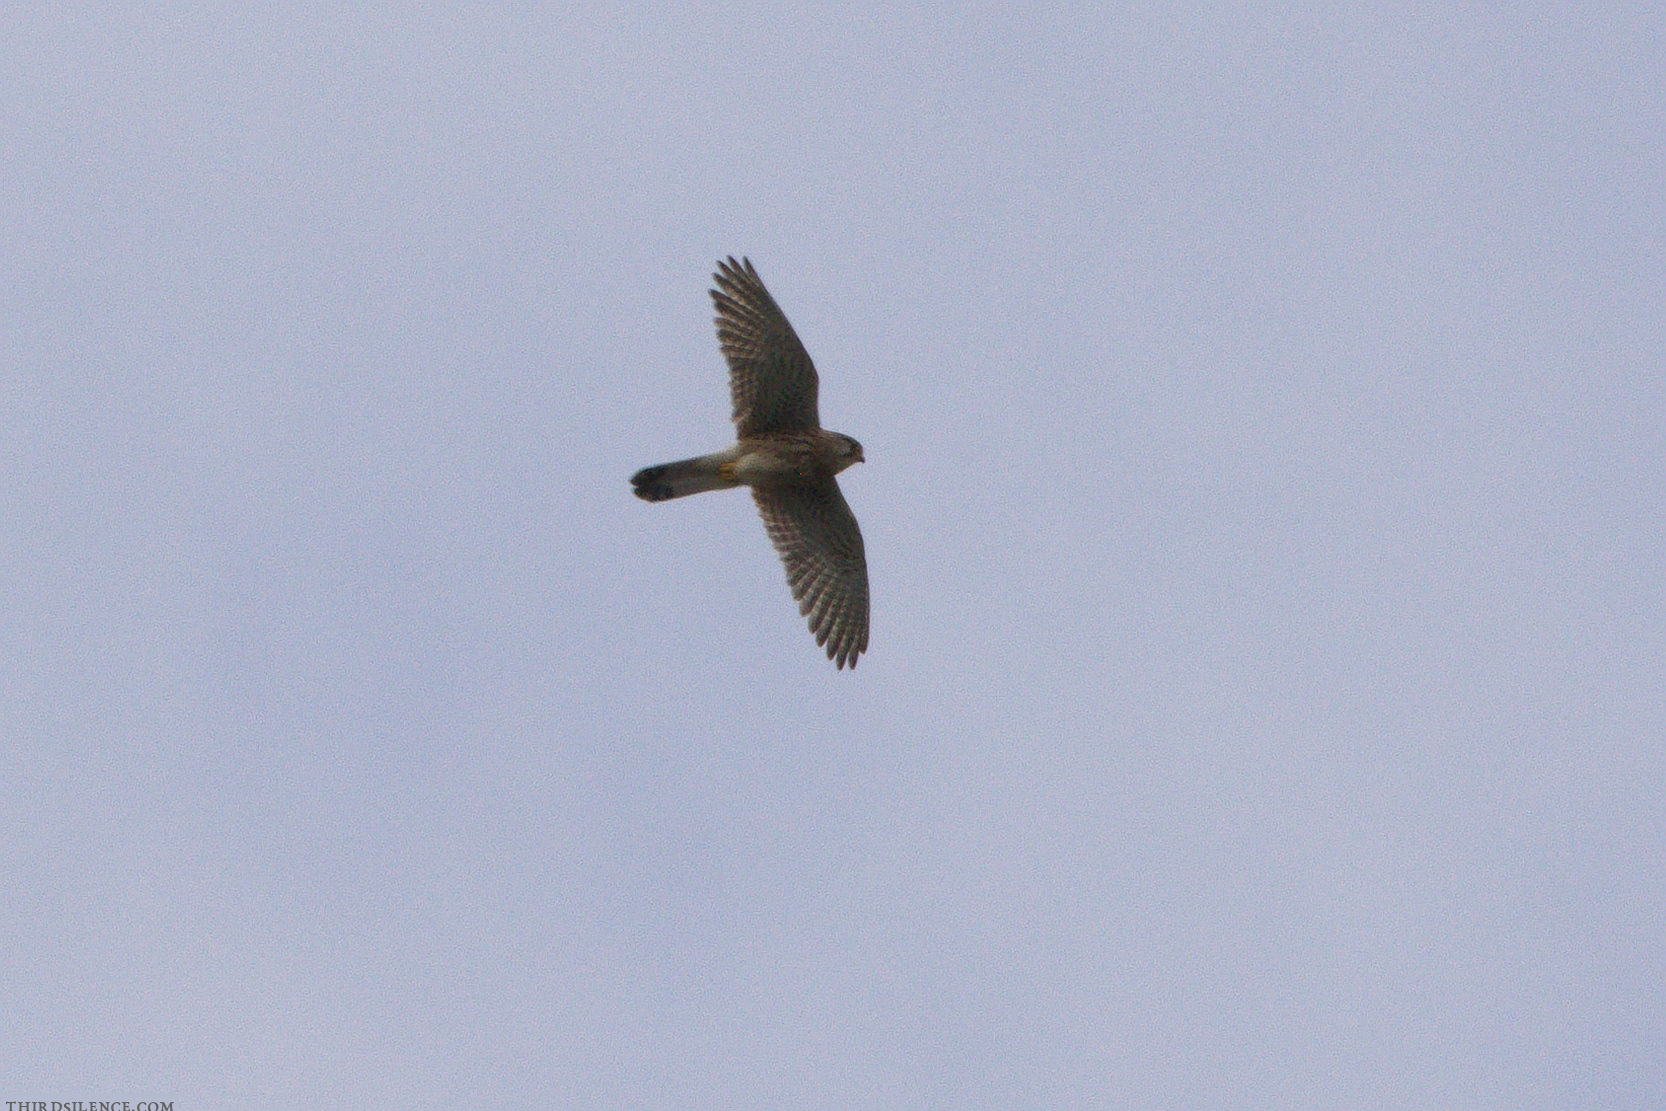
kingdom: Animalia
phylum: Chordata
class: Aves
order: Falconiformes
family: Falconidae
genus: Falco
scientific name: Falco tinnunculus
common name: Common kestrel
